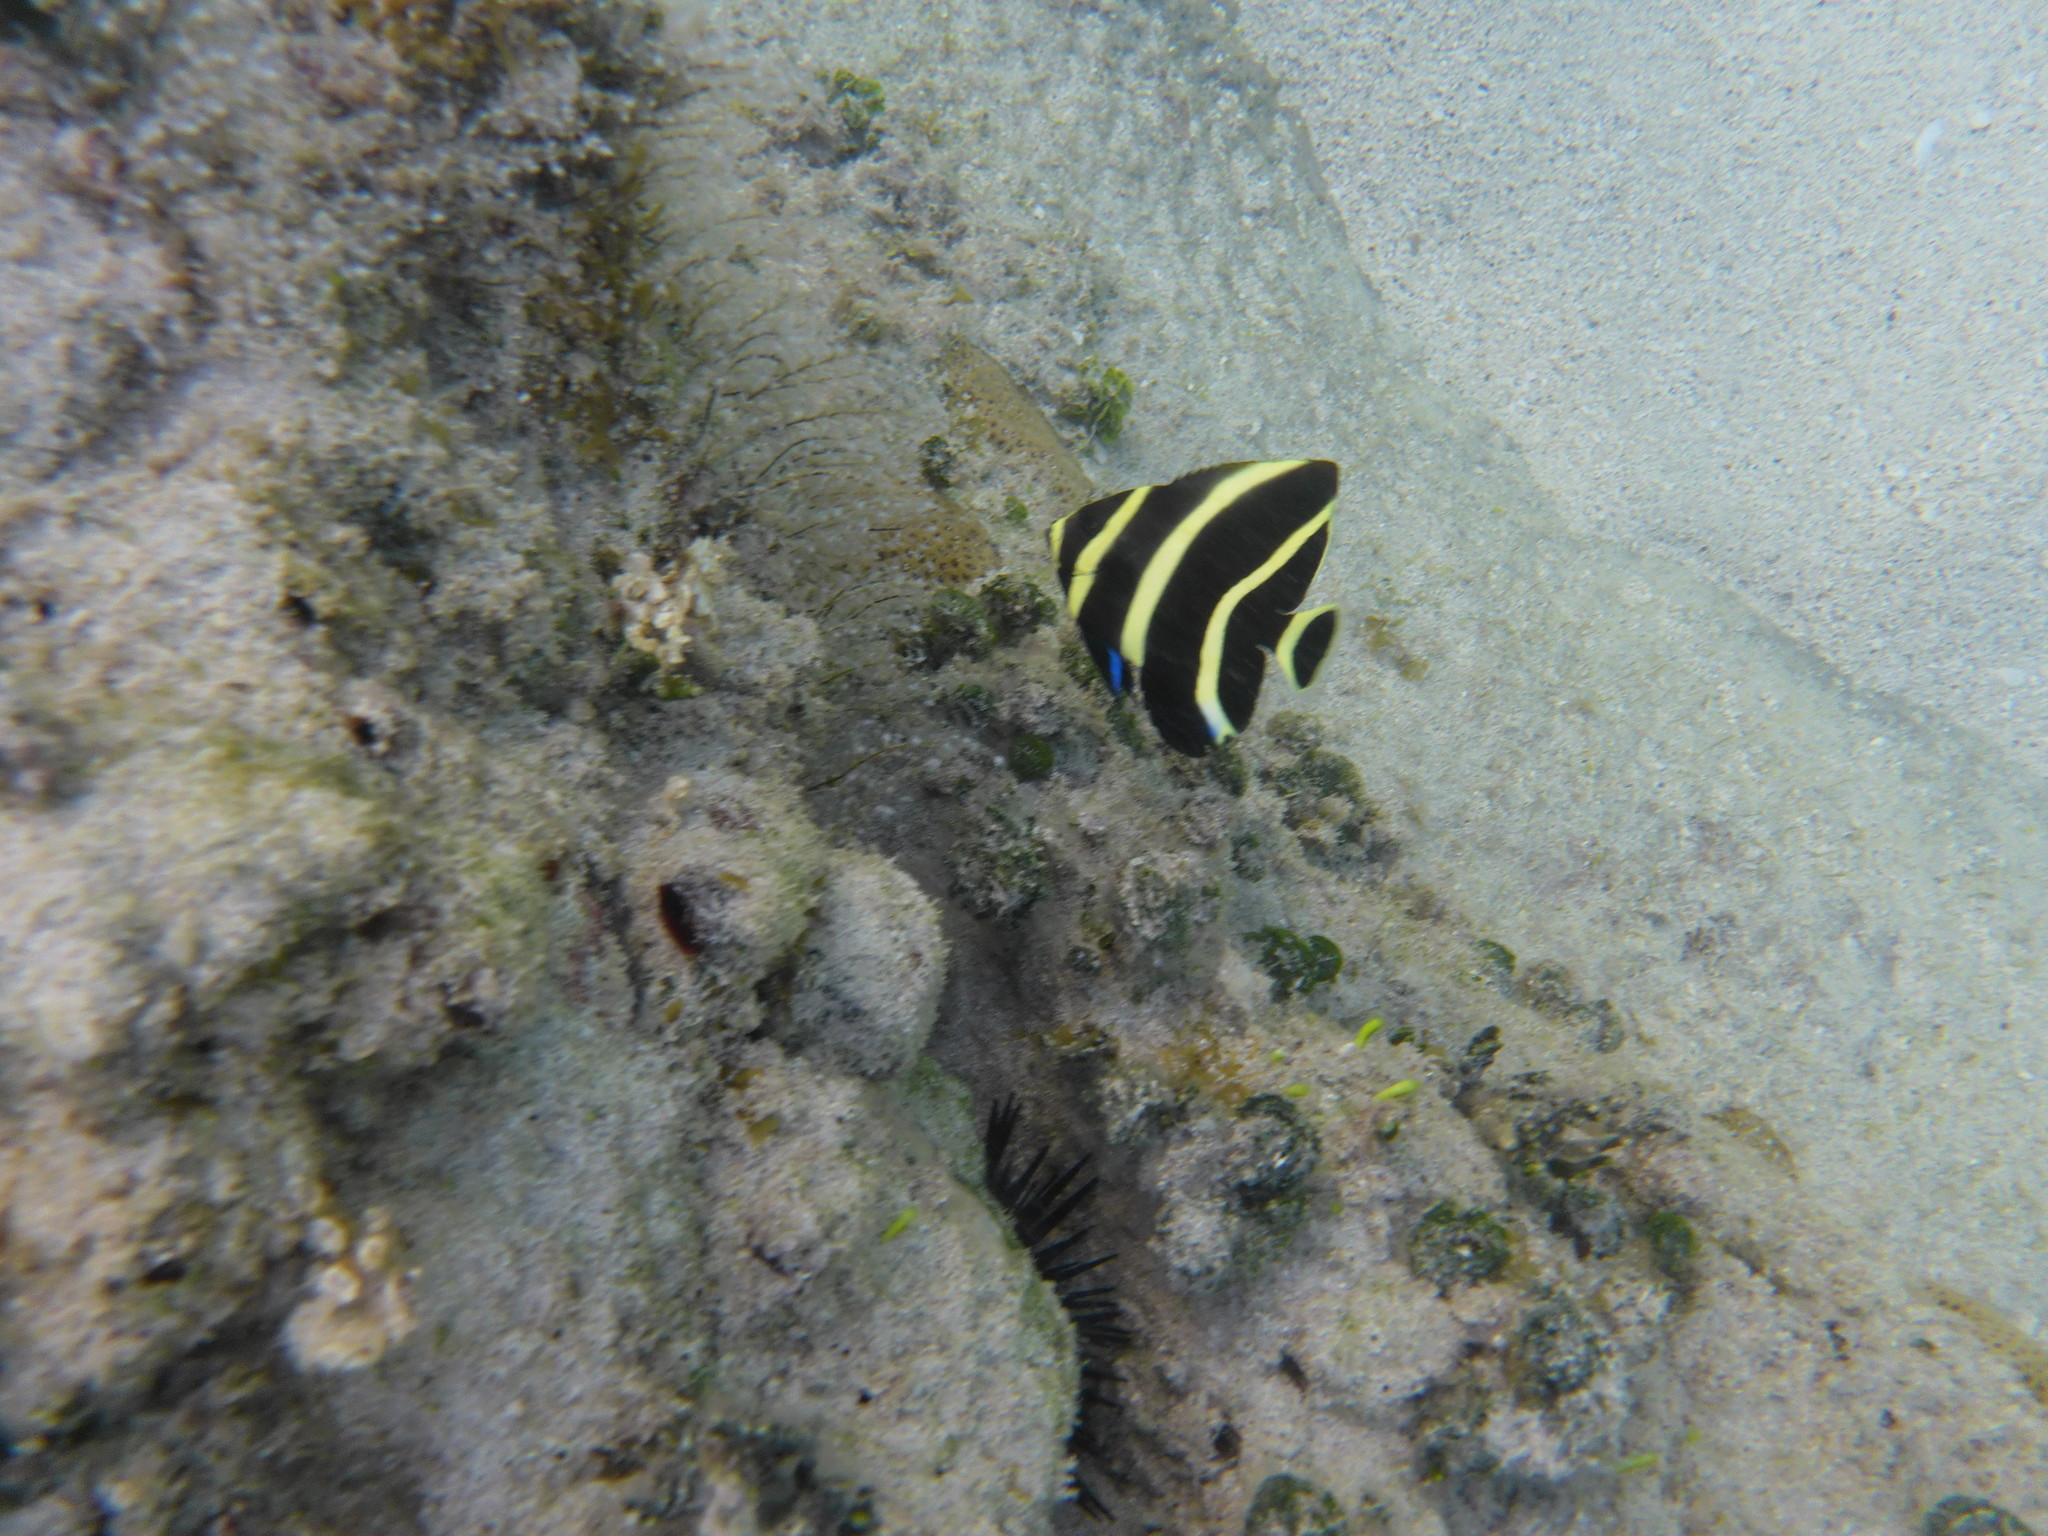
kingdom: Animalia
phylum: Chordata
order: Perciformes
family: Pomacanthidae
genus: Pomacanthus
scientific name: Pomacanthus paru
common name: French angelfish
